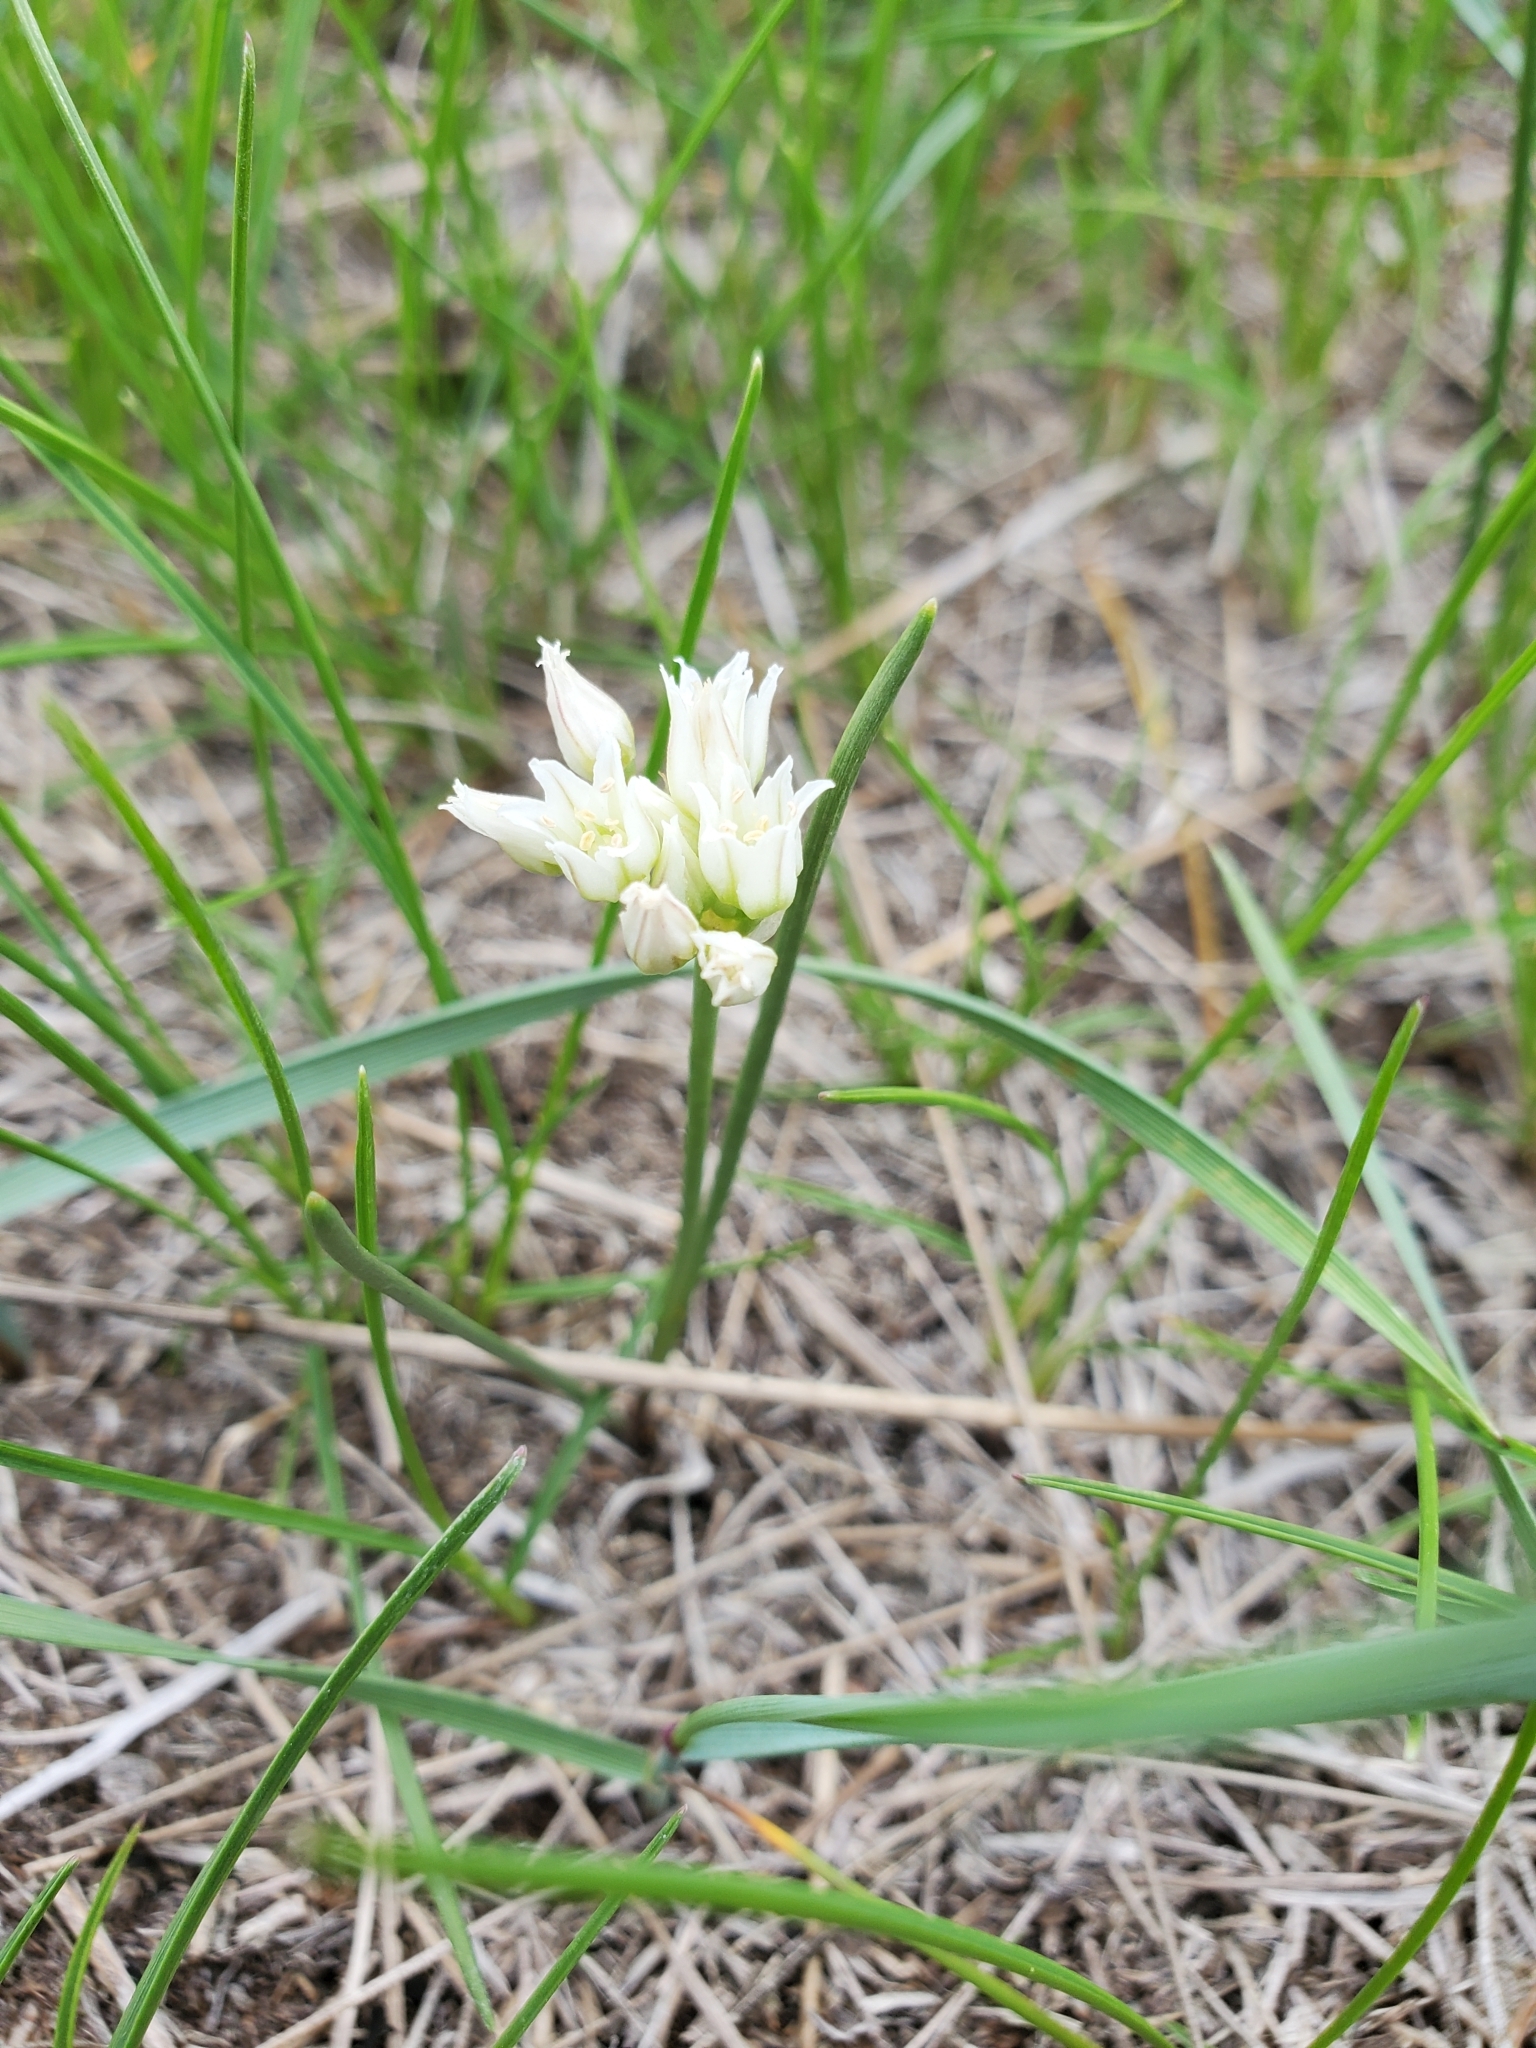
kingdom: Plantae
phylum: Tracheophyta
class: Liliopsida
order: Asparagales
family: Amaryllidaceae
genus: Allium
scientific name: Allium textile
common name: Prairie onion
